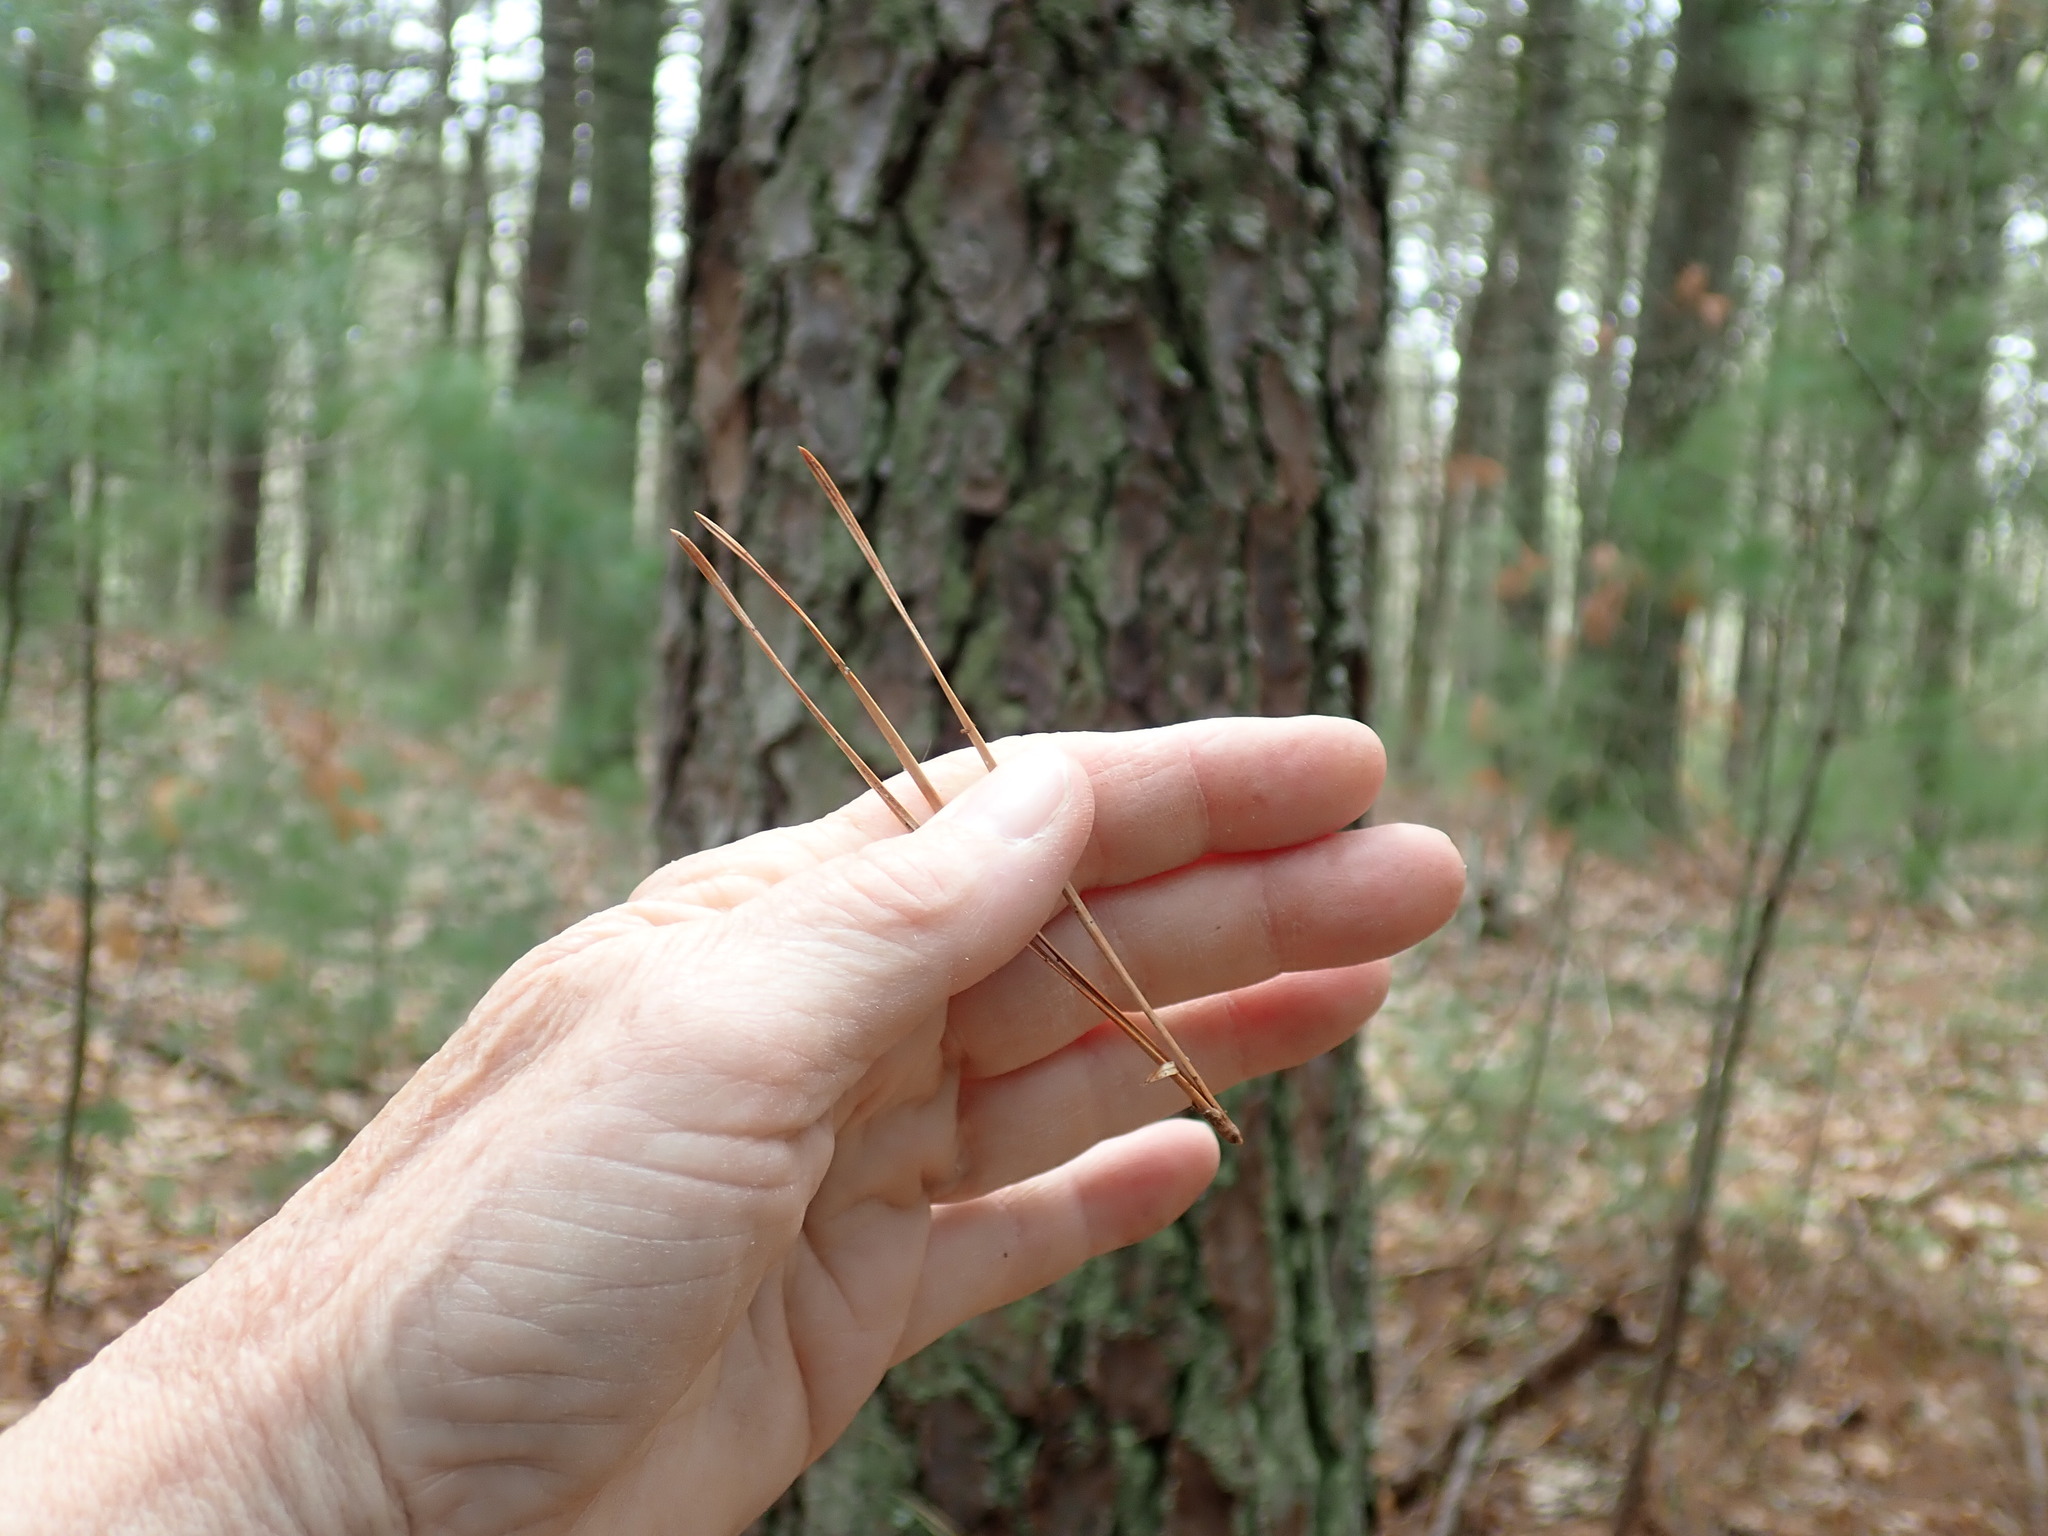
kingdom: Plantae
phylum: Tracheophyta
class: Pinopsida
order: Pinales
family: Pinaceae
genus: Pinus
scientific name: Pinus rigida
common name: Pitch pine
